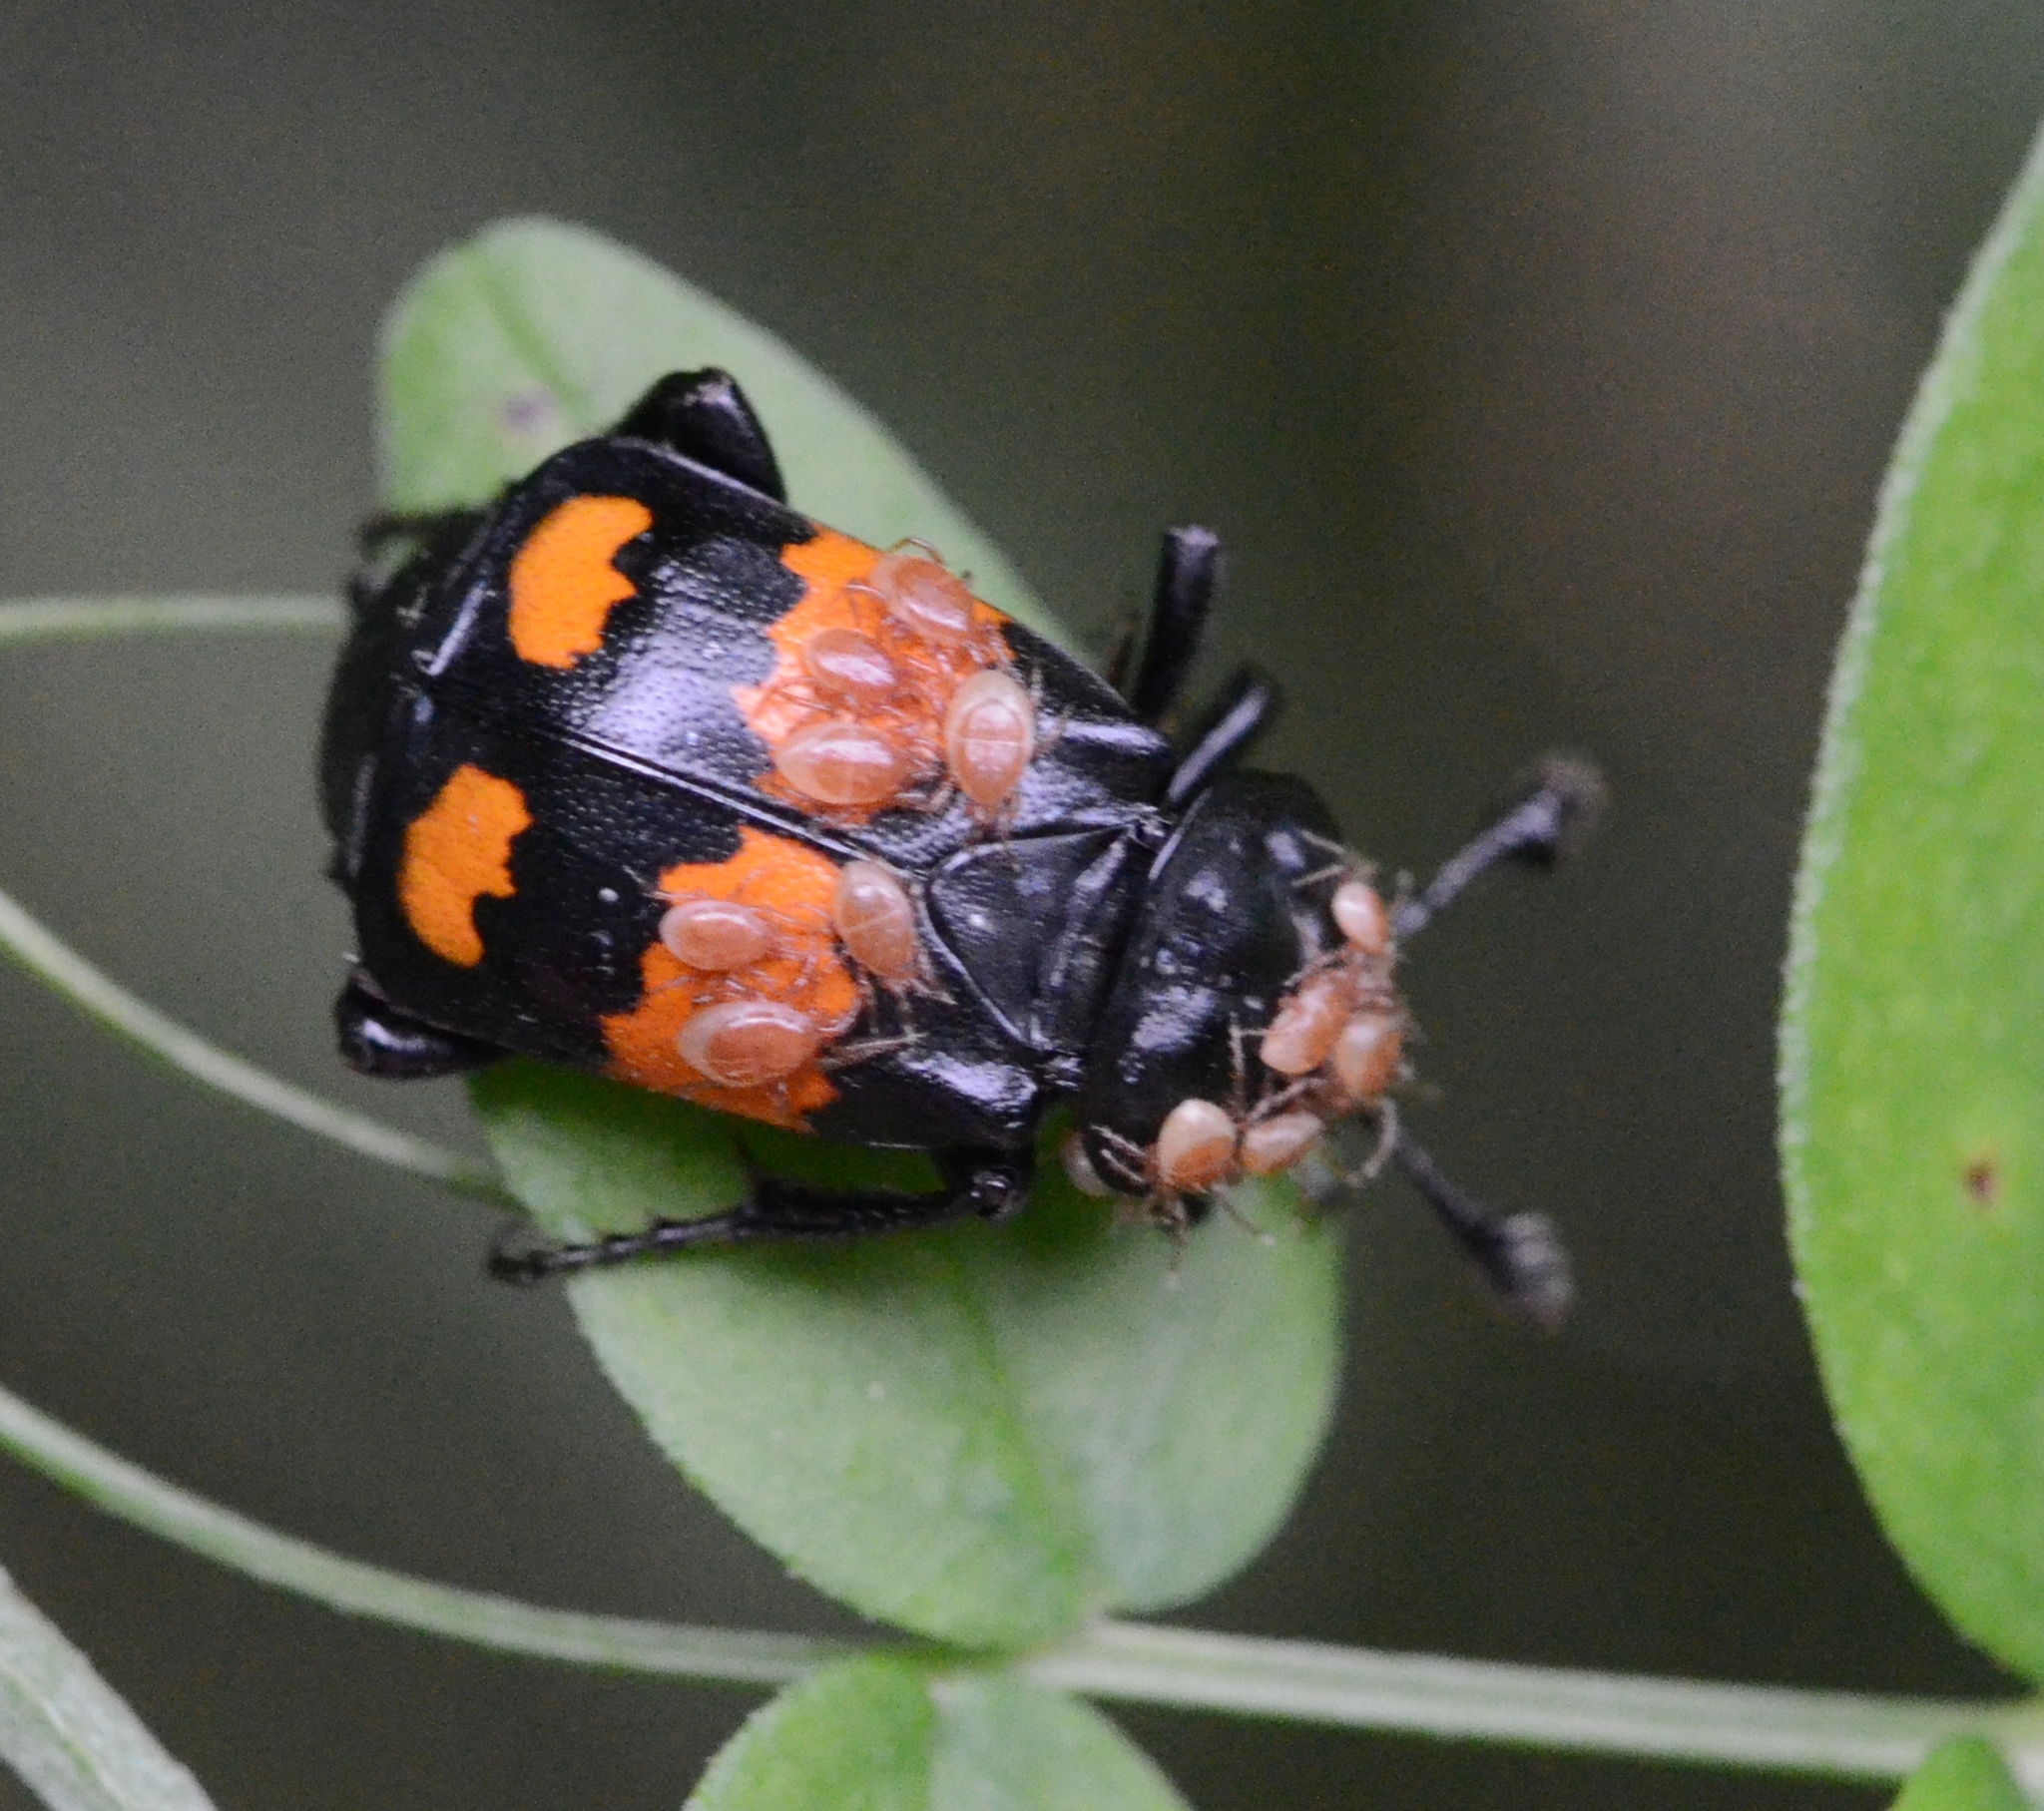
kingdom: Animalia
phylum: Arthropoda
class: Insecta
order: Coleoptera
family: Staphylinidae
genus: Nicrophorus
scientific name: Nicrophorus vespilloides
